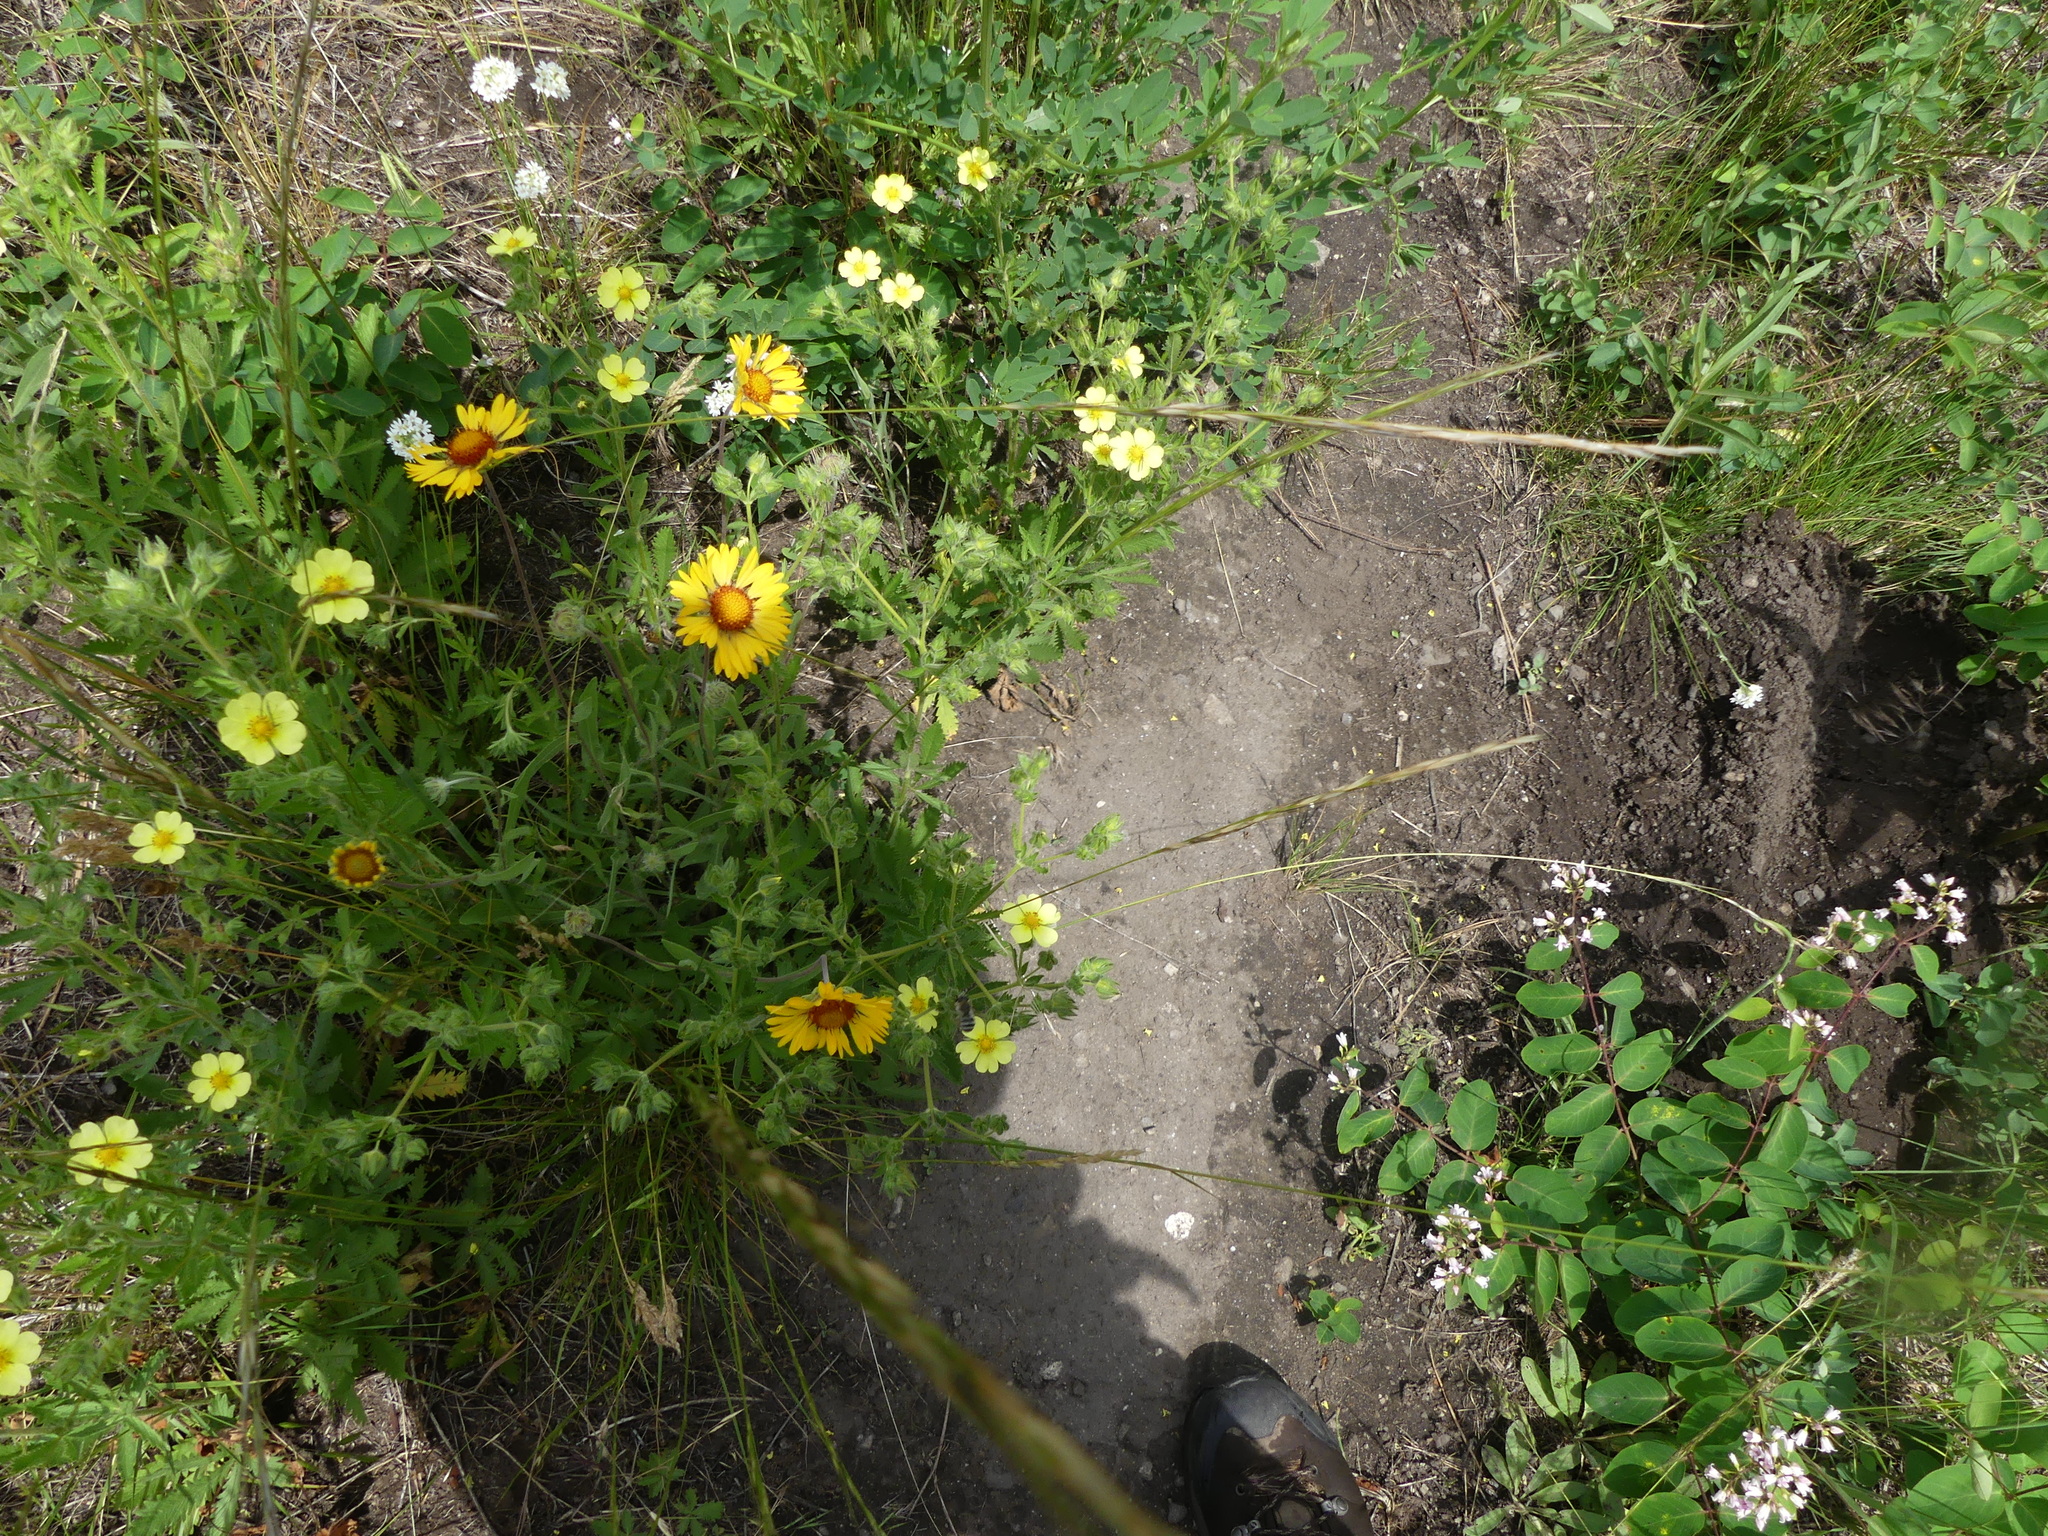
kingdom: Plantae
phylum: Tracheophyta
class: Magnoliopsida
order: Asterales
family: Asteraceae
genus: Gaillardia
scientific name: Gaillardia aristata
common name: Blanket-flower
